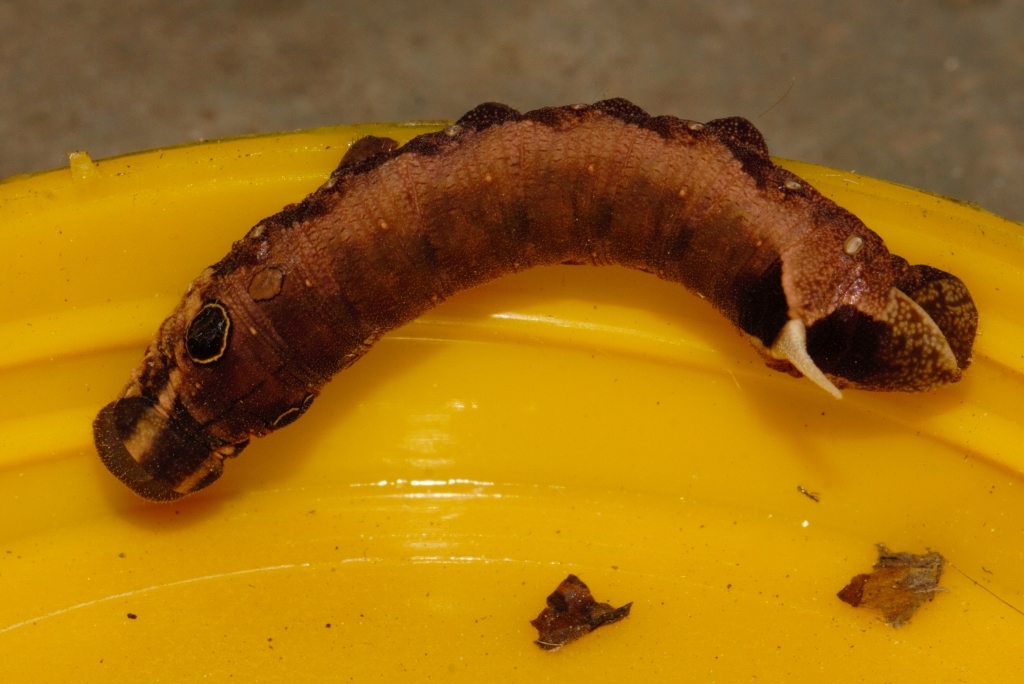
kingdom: Animalia
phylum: Arthropoda
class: Insecta
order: Lepidoptera
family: Sphingidae
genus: Hippotion
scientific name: Hippotion eson
